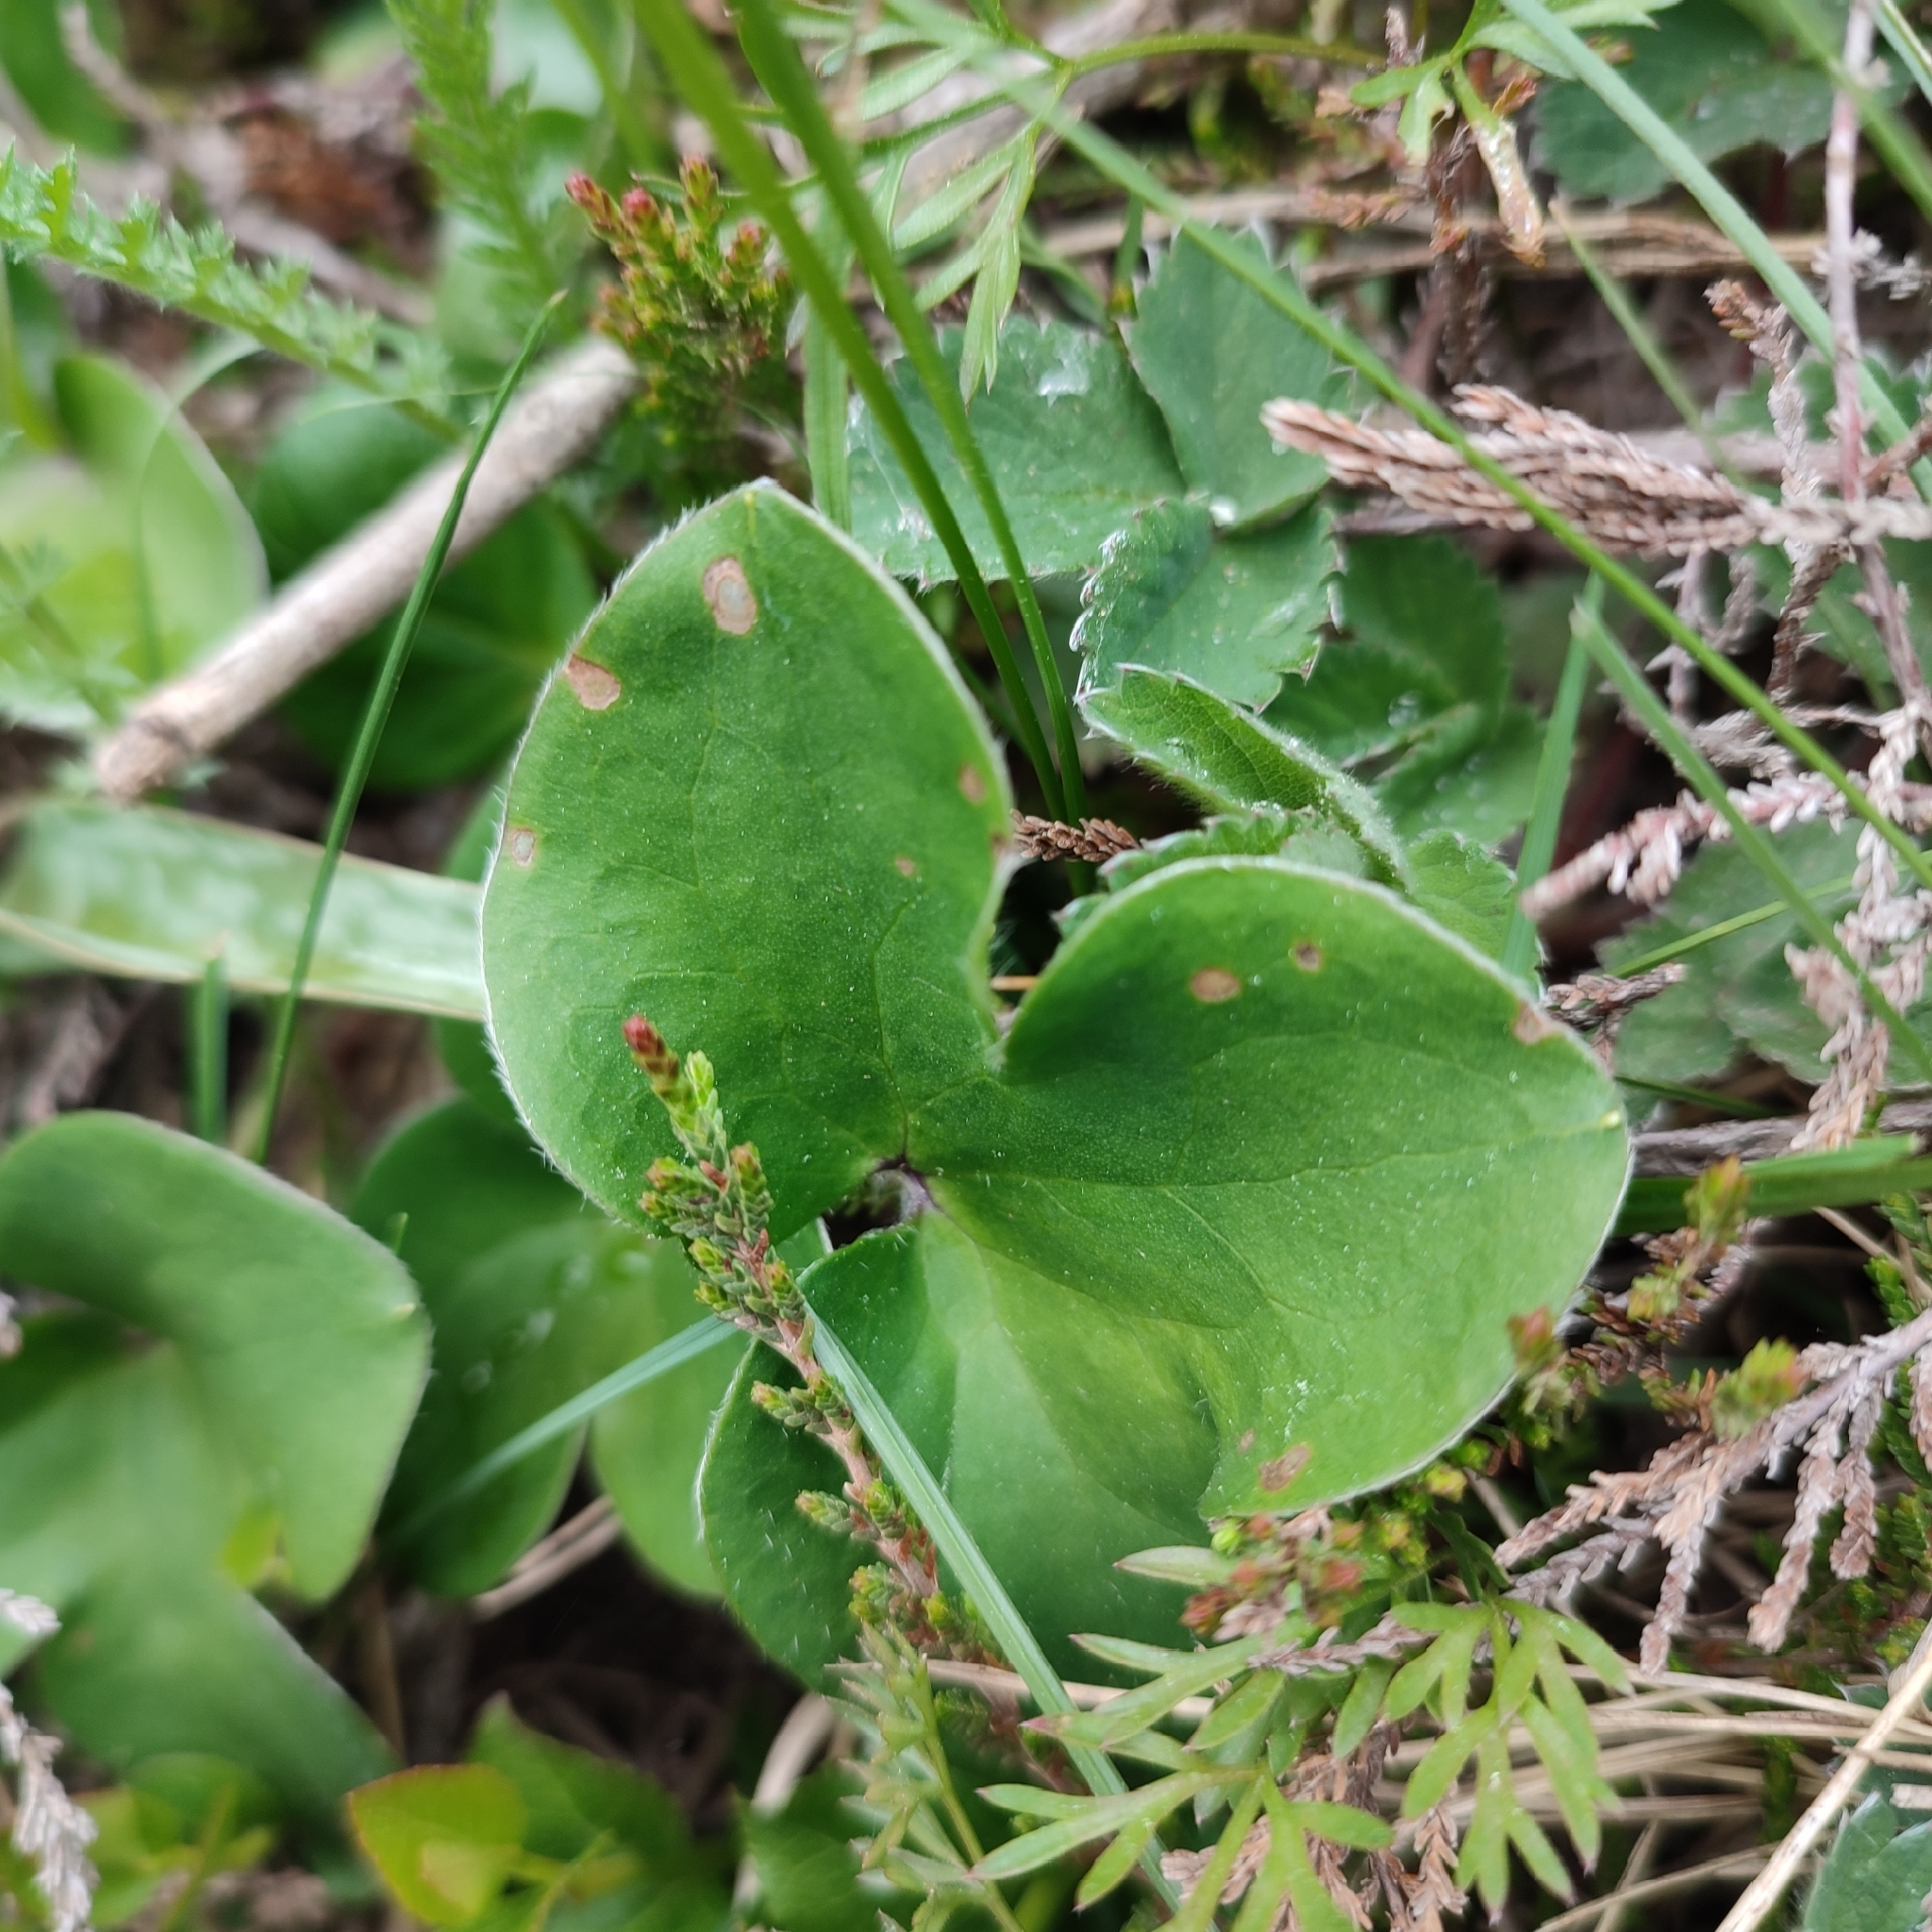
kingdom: Plantae
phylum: Tracheophyta
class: Magnoliopsida
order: Ranunculales
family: Ranunculaceae
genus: Hepatica
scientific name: Hepatica nobilis
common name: Liverleaf
